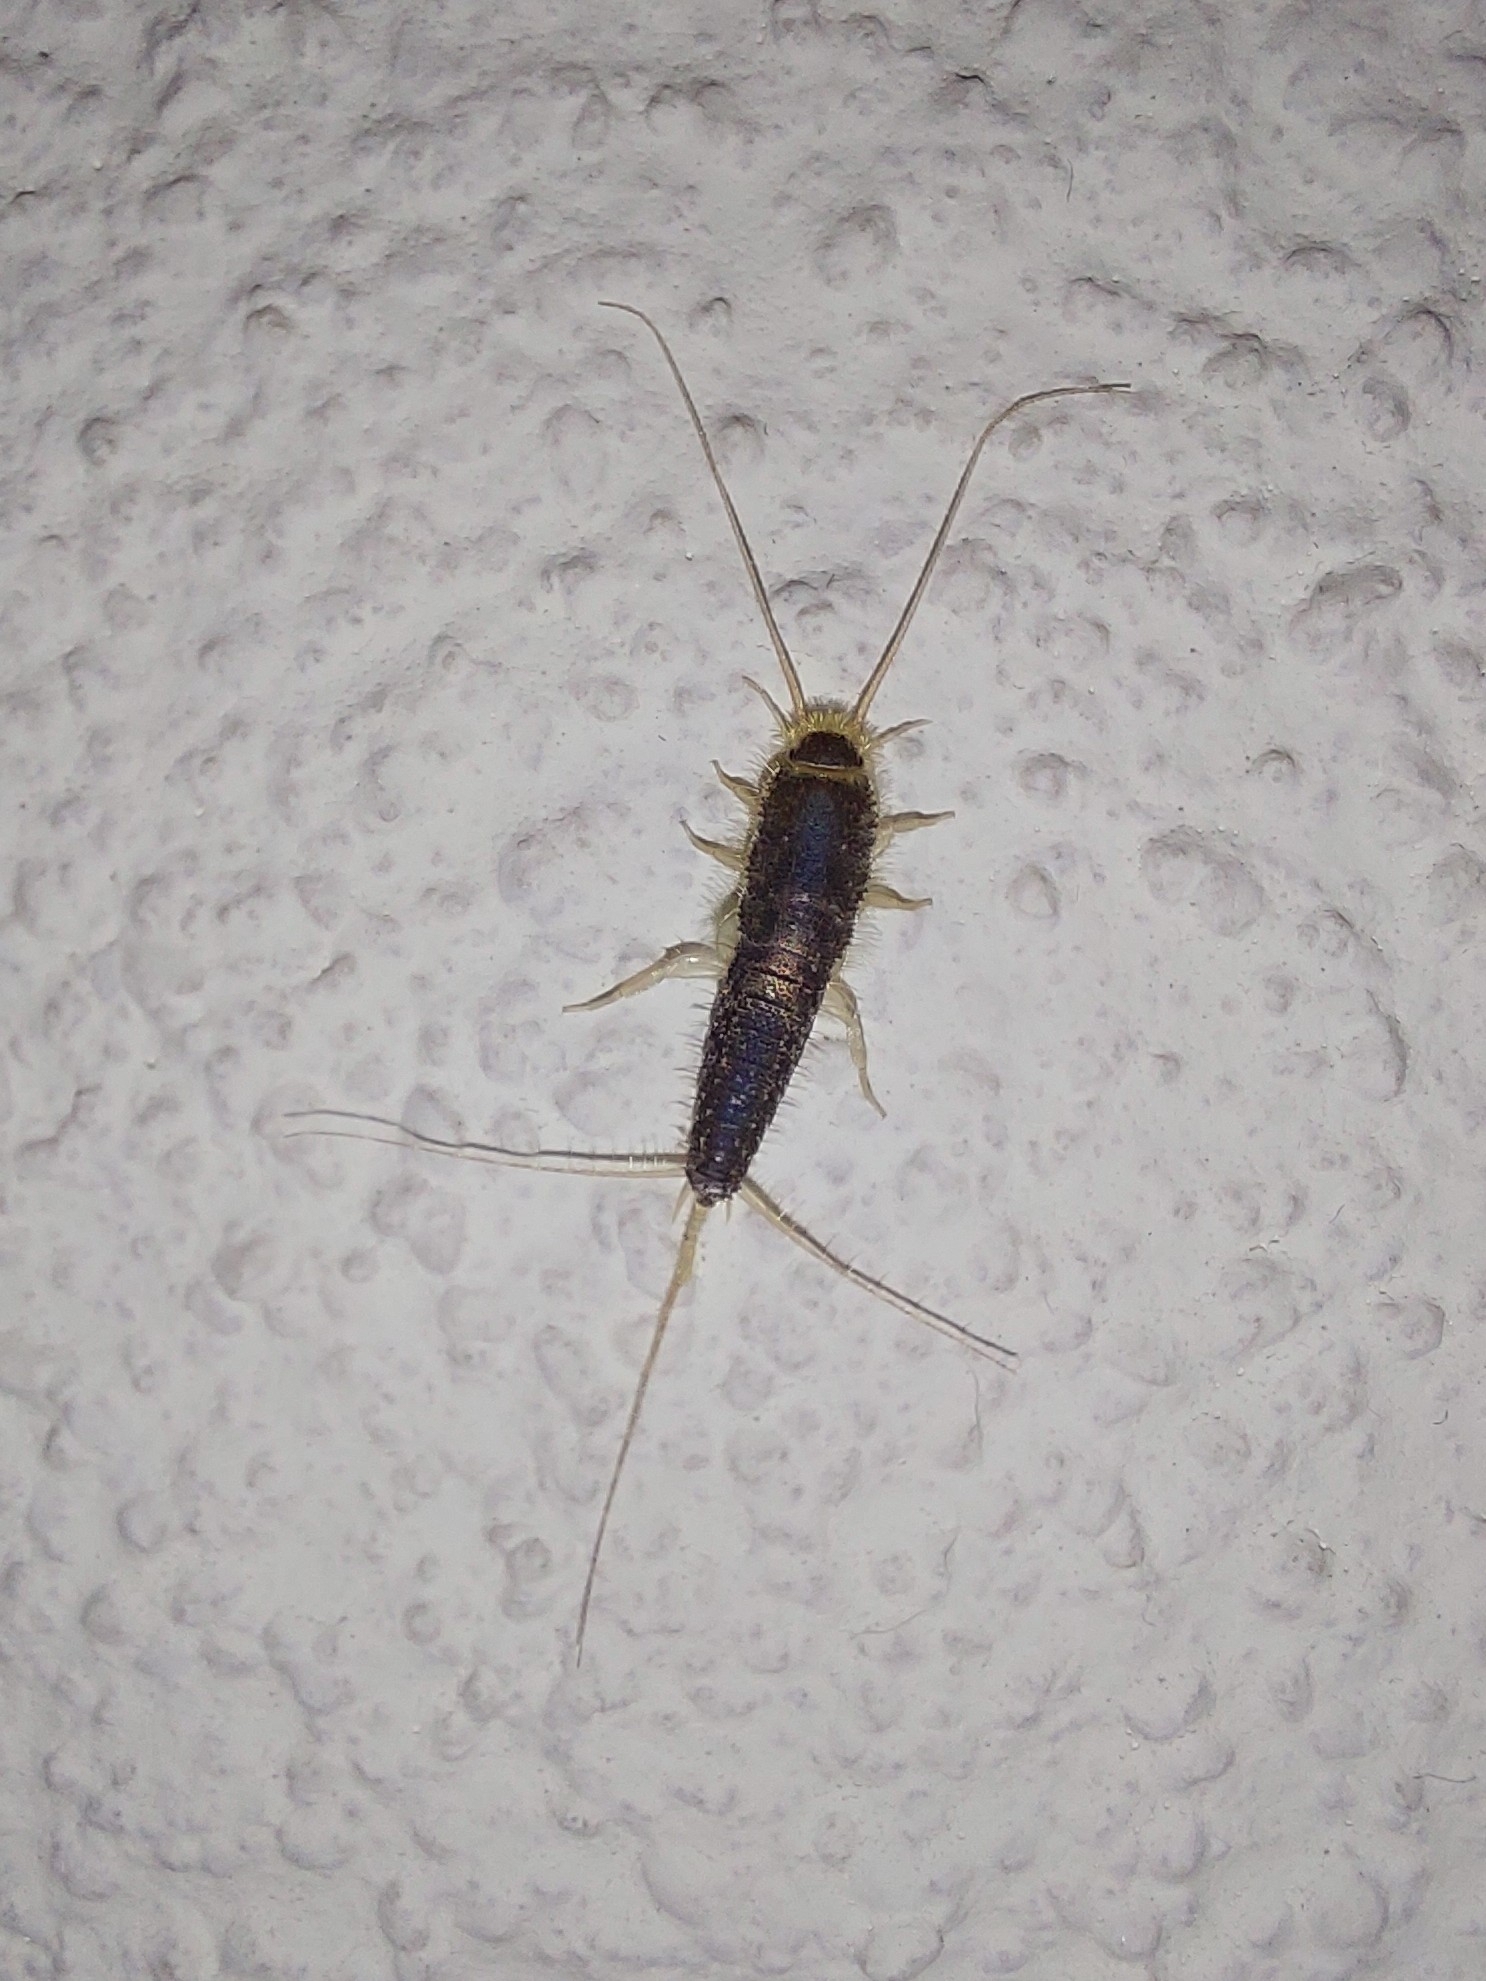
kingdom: Animalia
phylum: Arthropoda
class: Insecta
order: Zygentoma
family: Lepismatidae
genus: Ctenolepisma
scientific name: Ctenolepisma longicaudatum
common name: Silverfish
